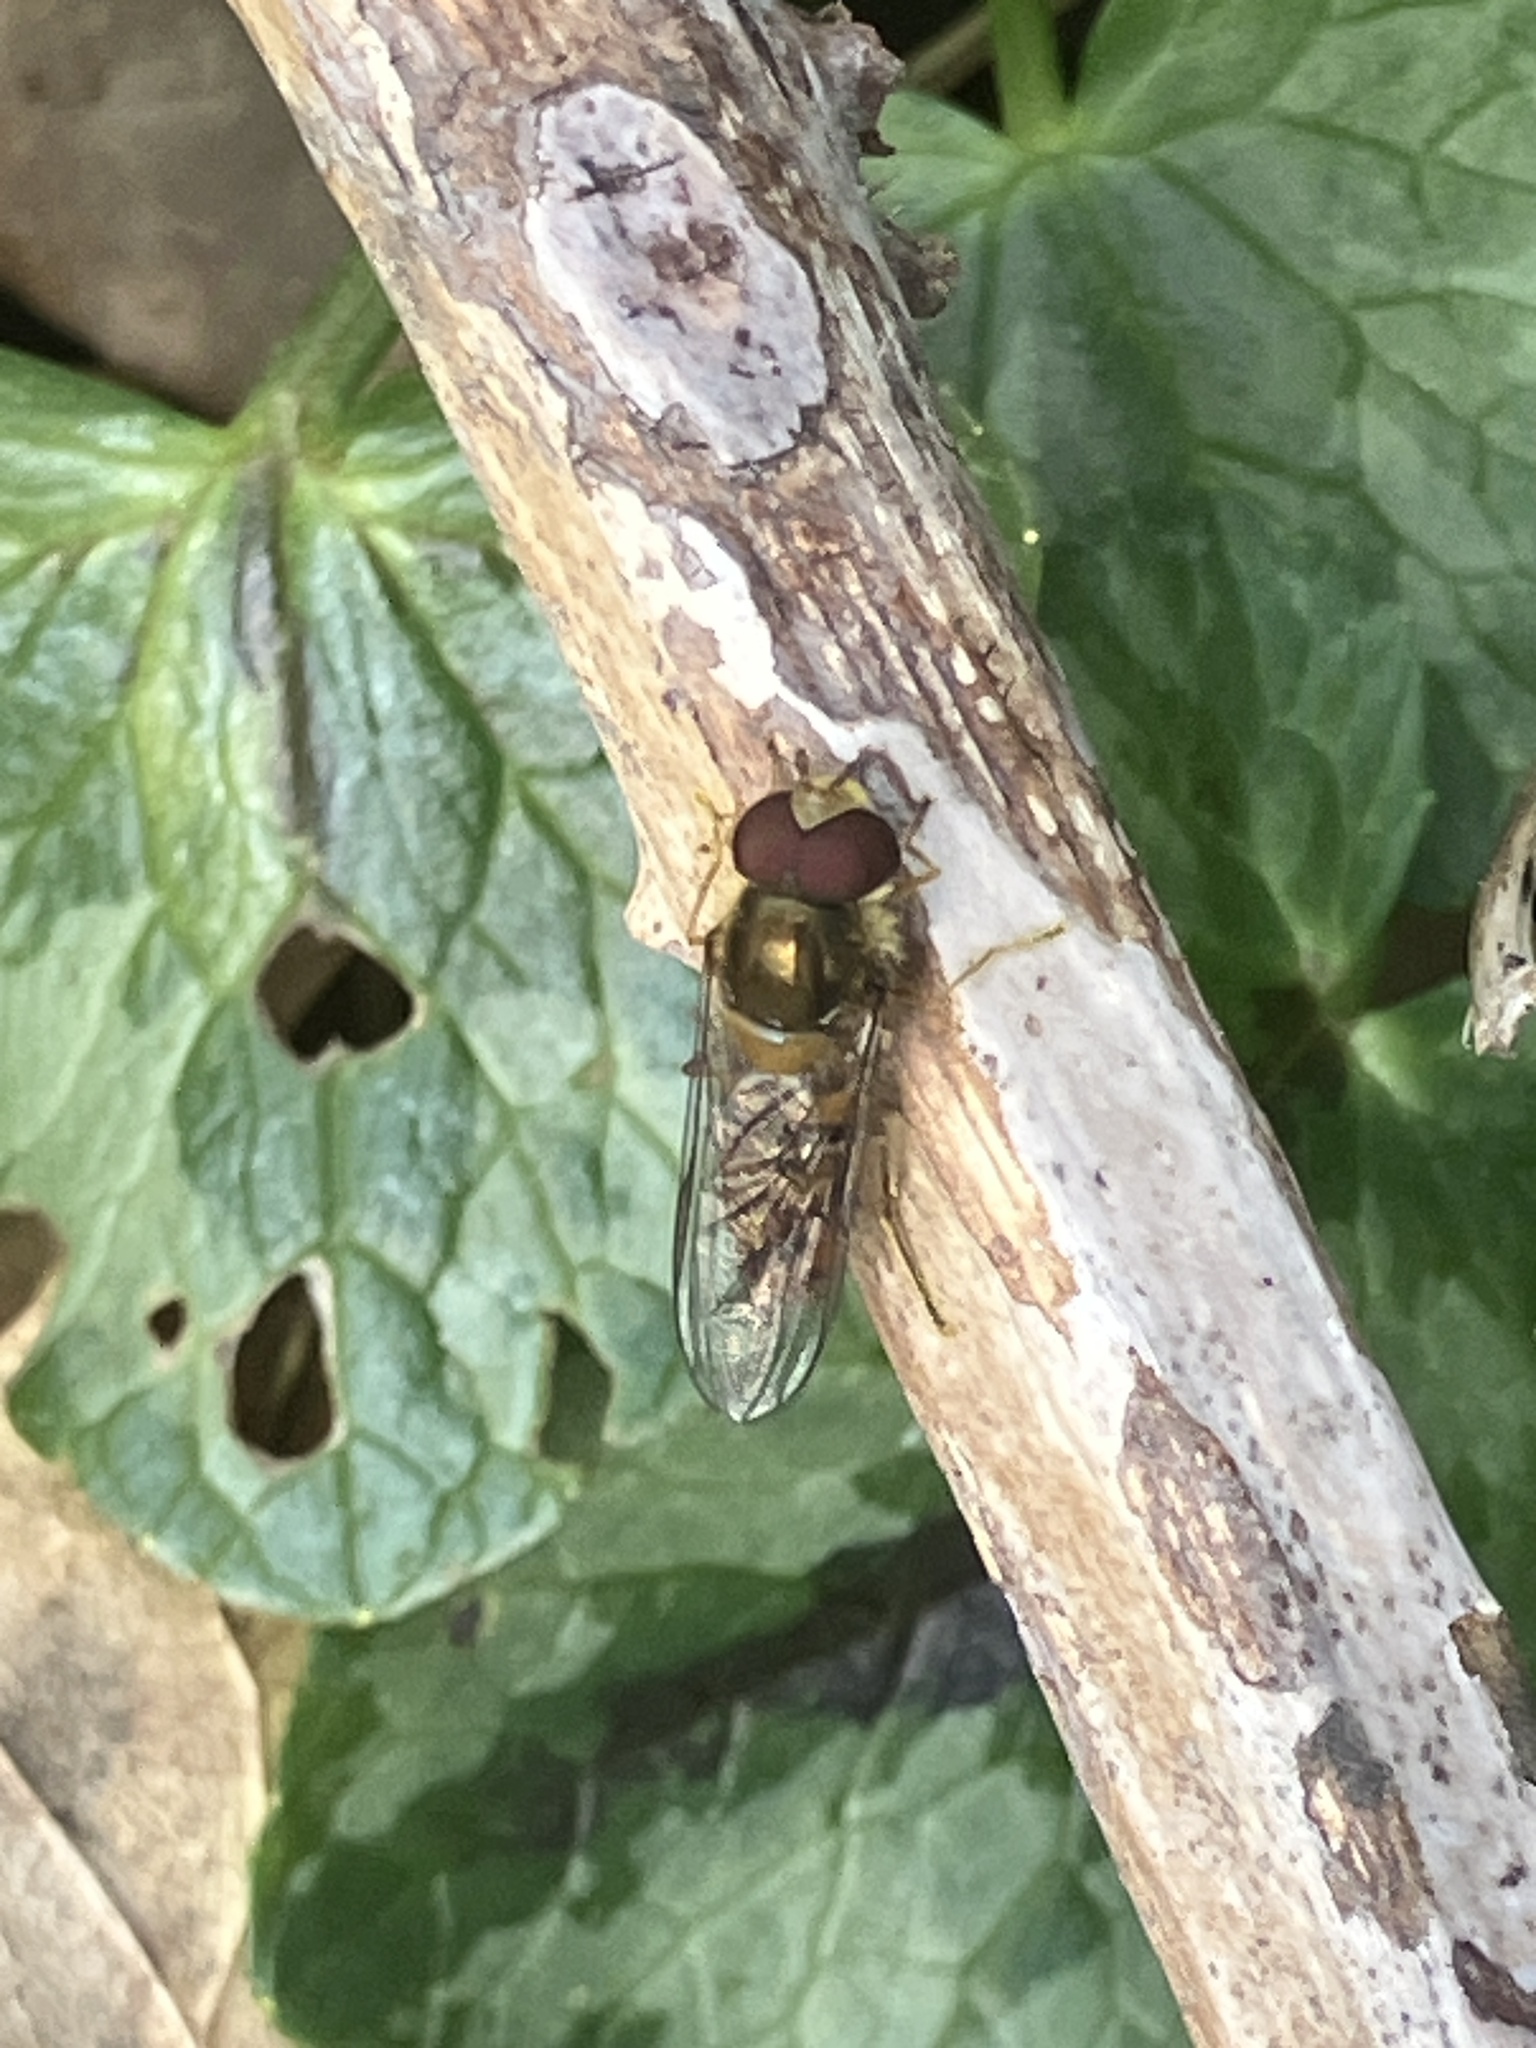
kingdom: Animalia
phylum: Arthropoda
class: Insecta
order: Diptera
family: Syrphidae
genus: Episyrphus
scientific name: Episyrphus balteatus
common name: Marmalade hoverfly
